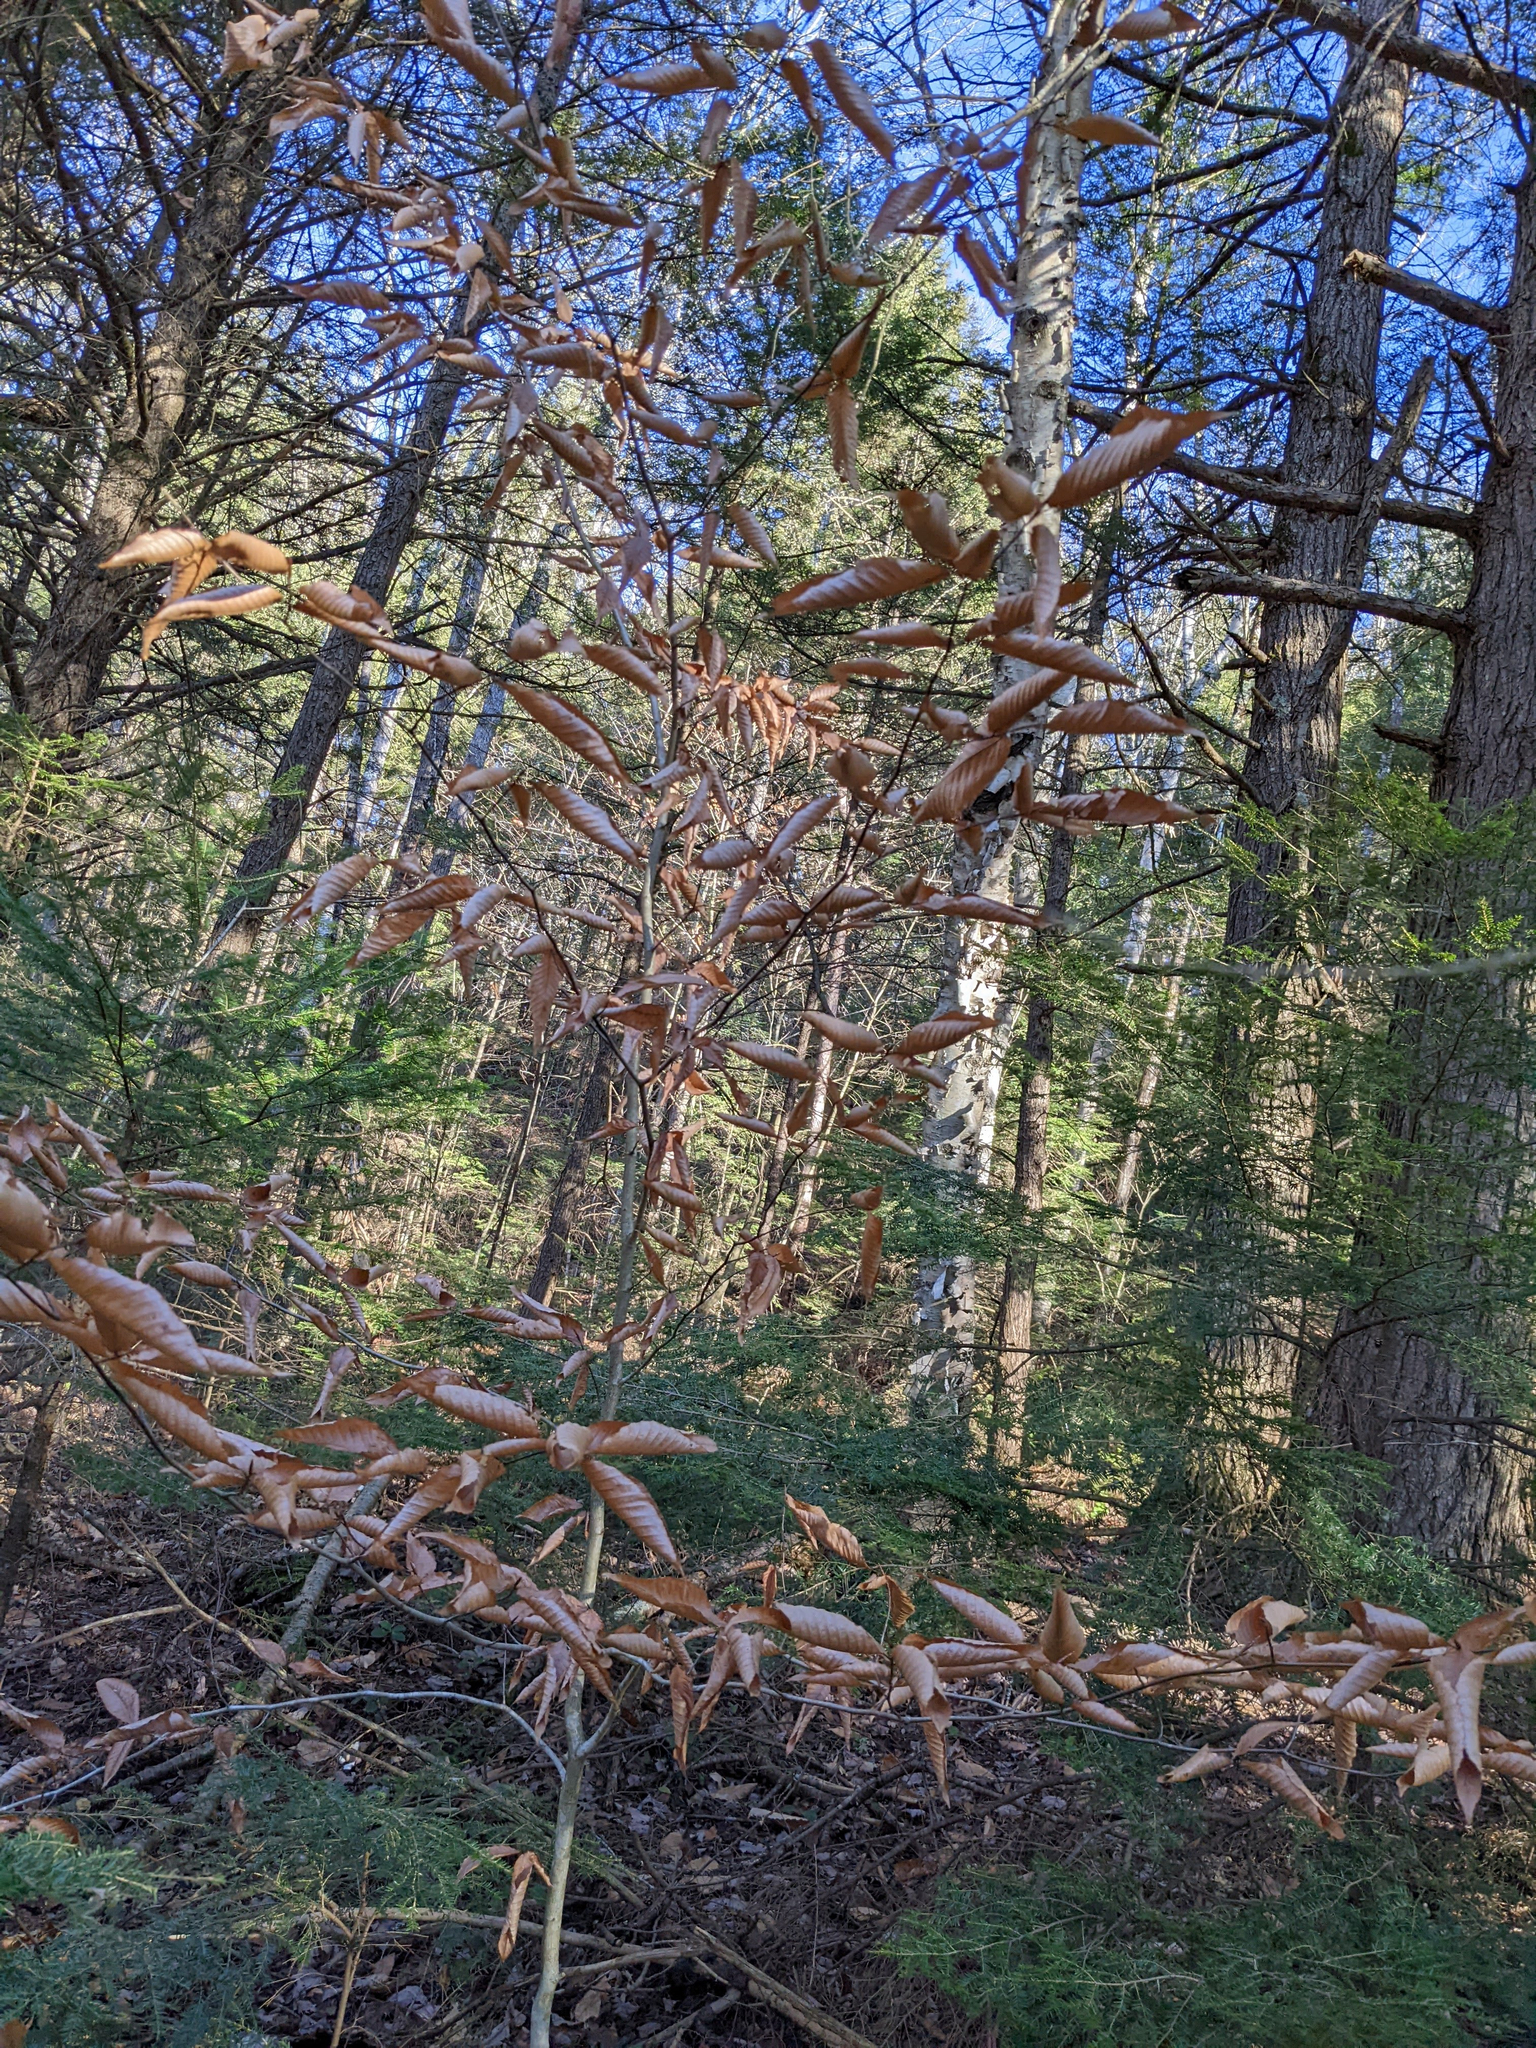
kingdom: Plantae
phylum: Tracheophyta
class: Magnoliopsida
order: Fagales
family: Fagaceae
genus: Fagus
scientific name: Fagus grandifolia
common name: American beech
